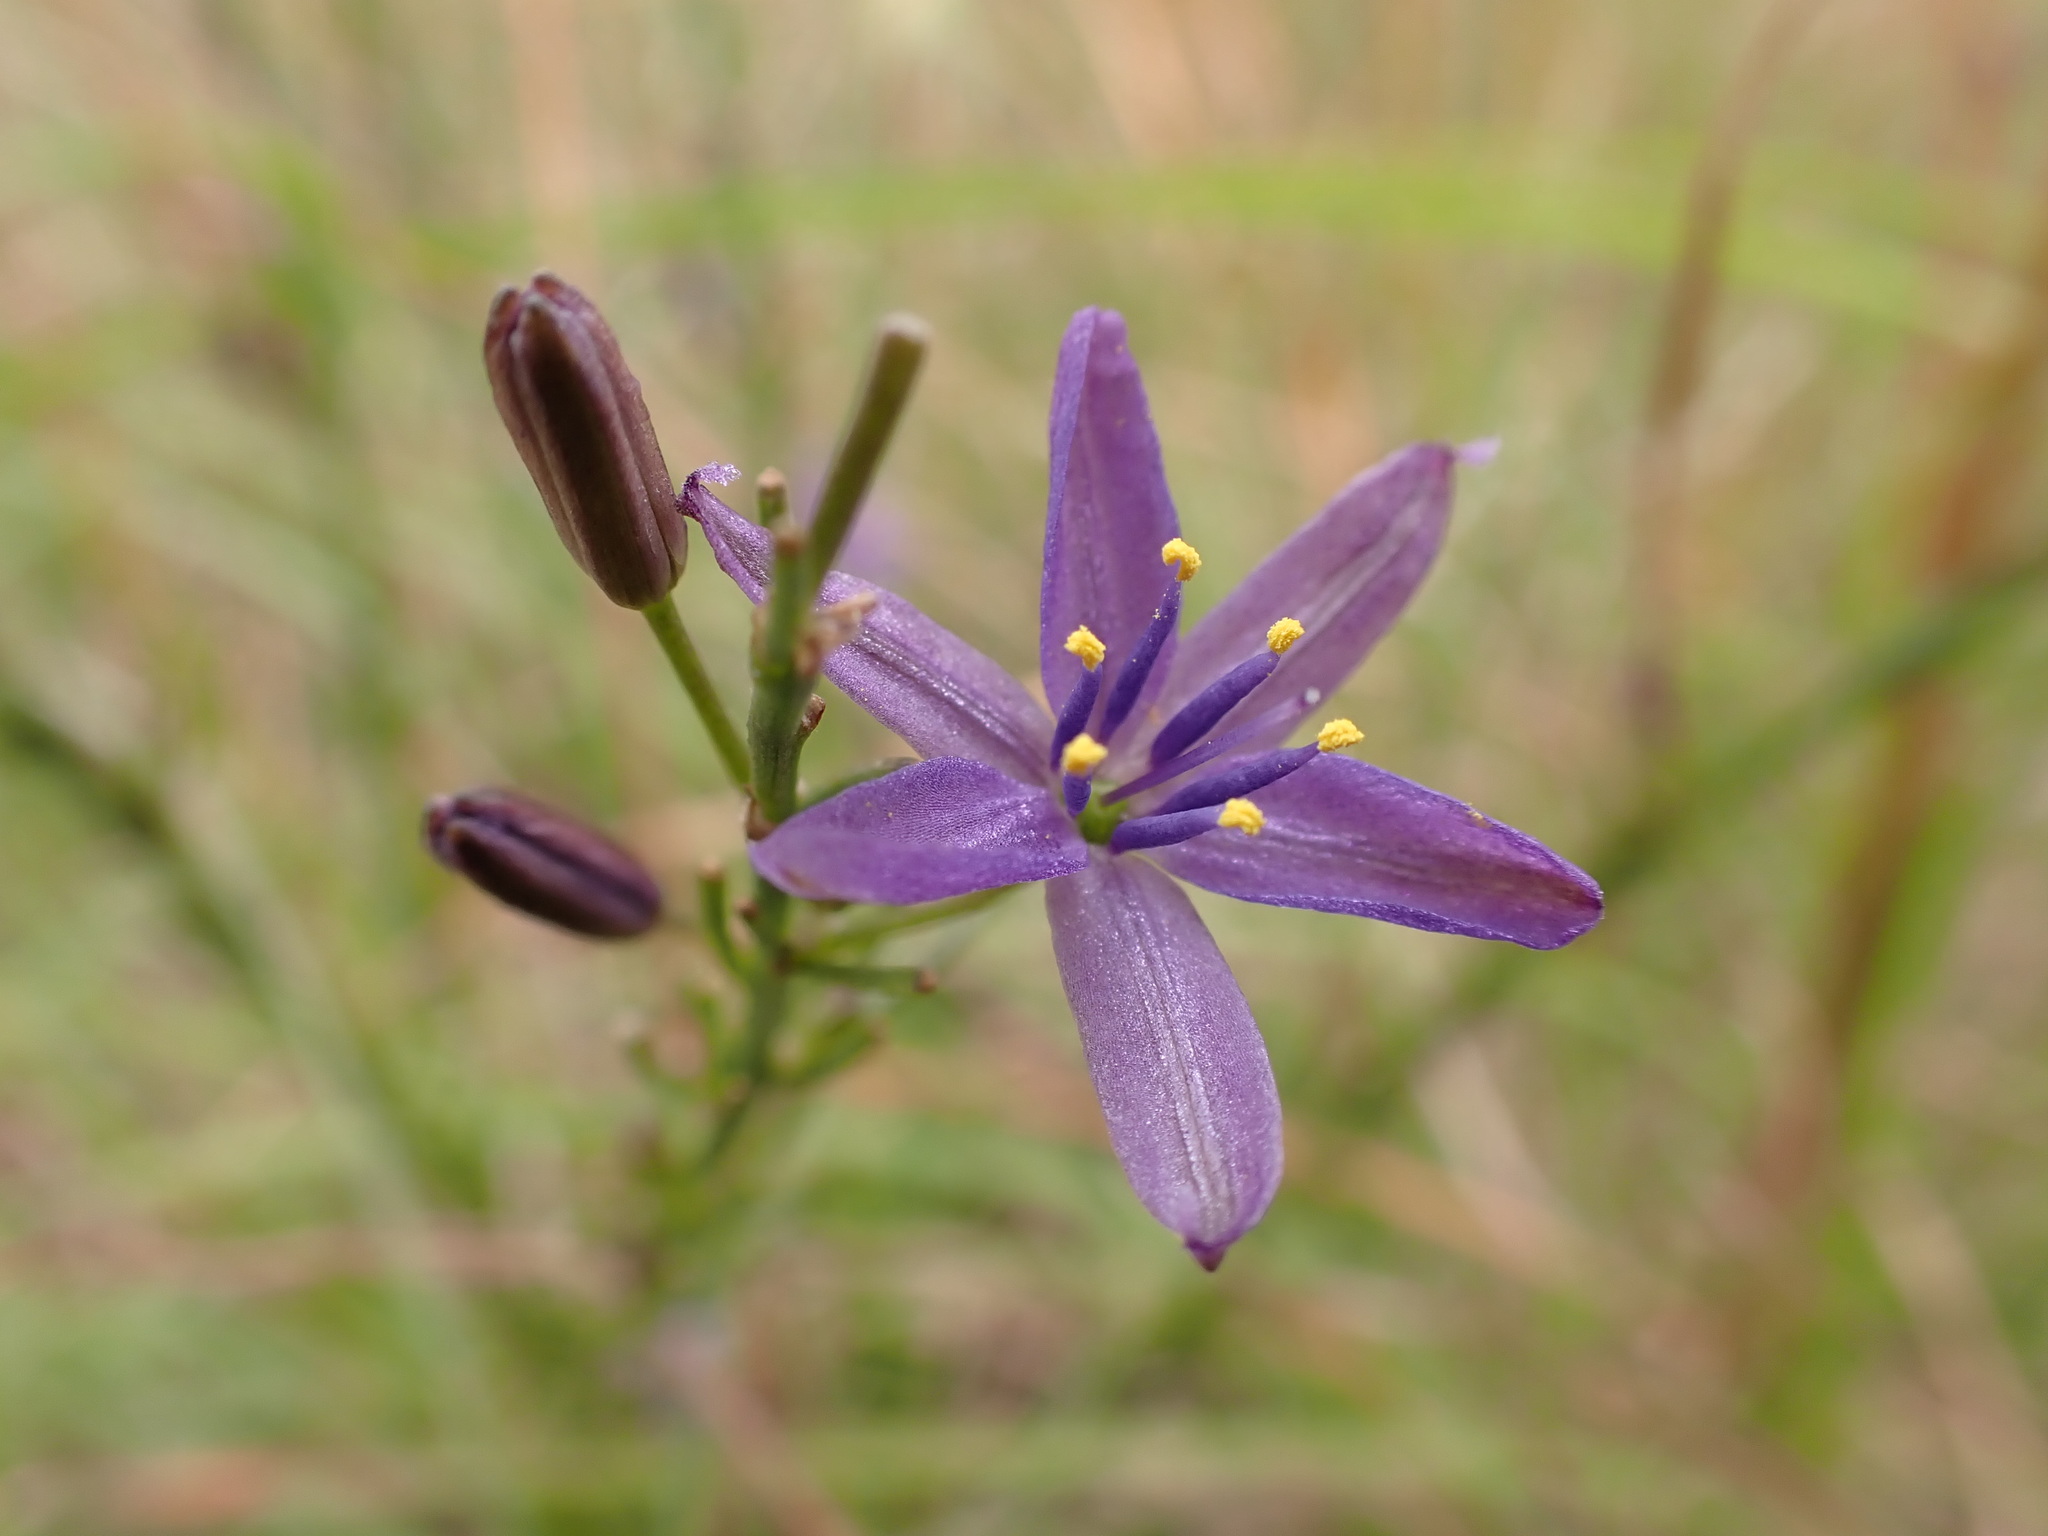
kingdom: Plantae
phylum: Tracheophyta
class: Liliopsida
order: Asparagales
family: Asphodelaceae
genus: Caesia
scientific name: Caesia calliantha
